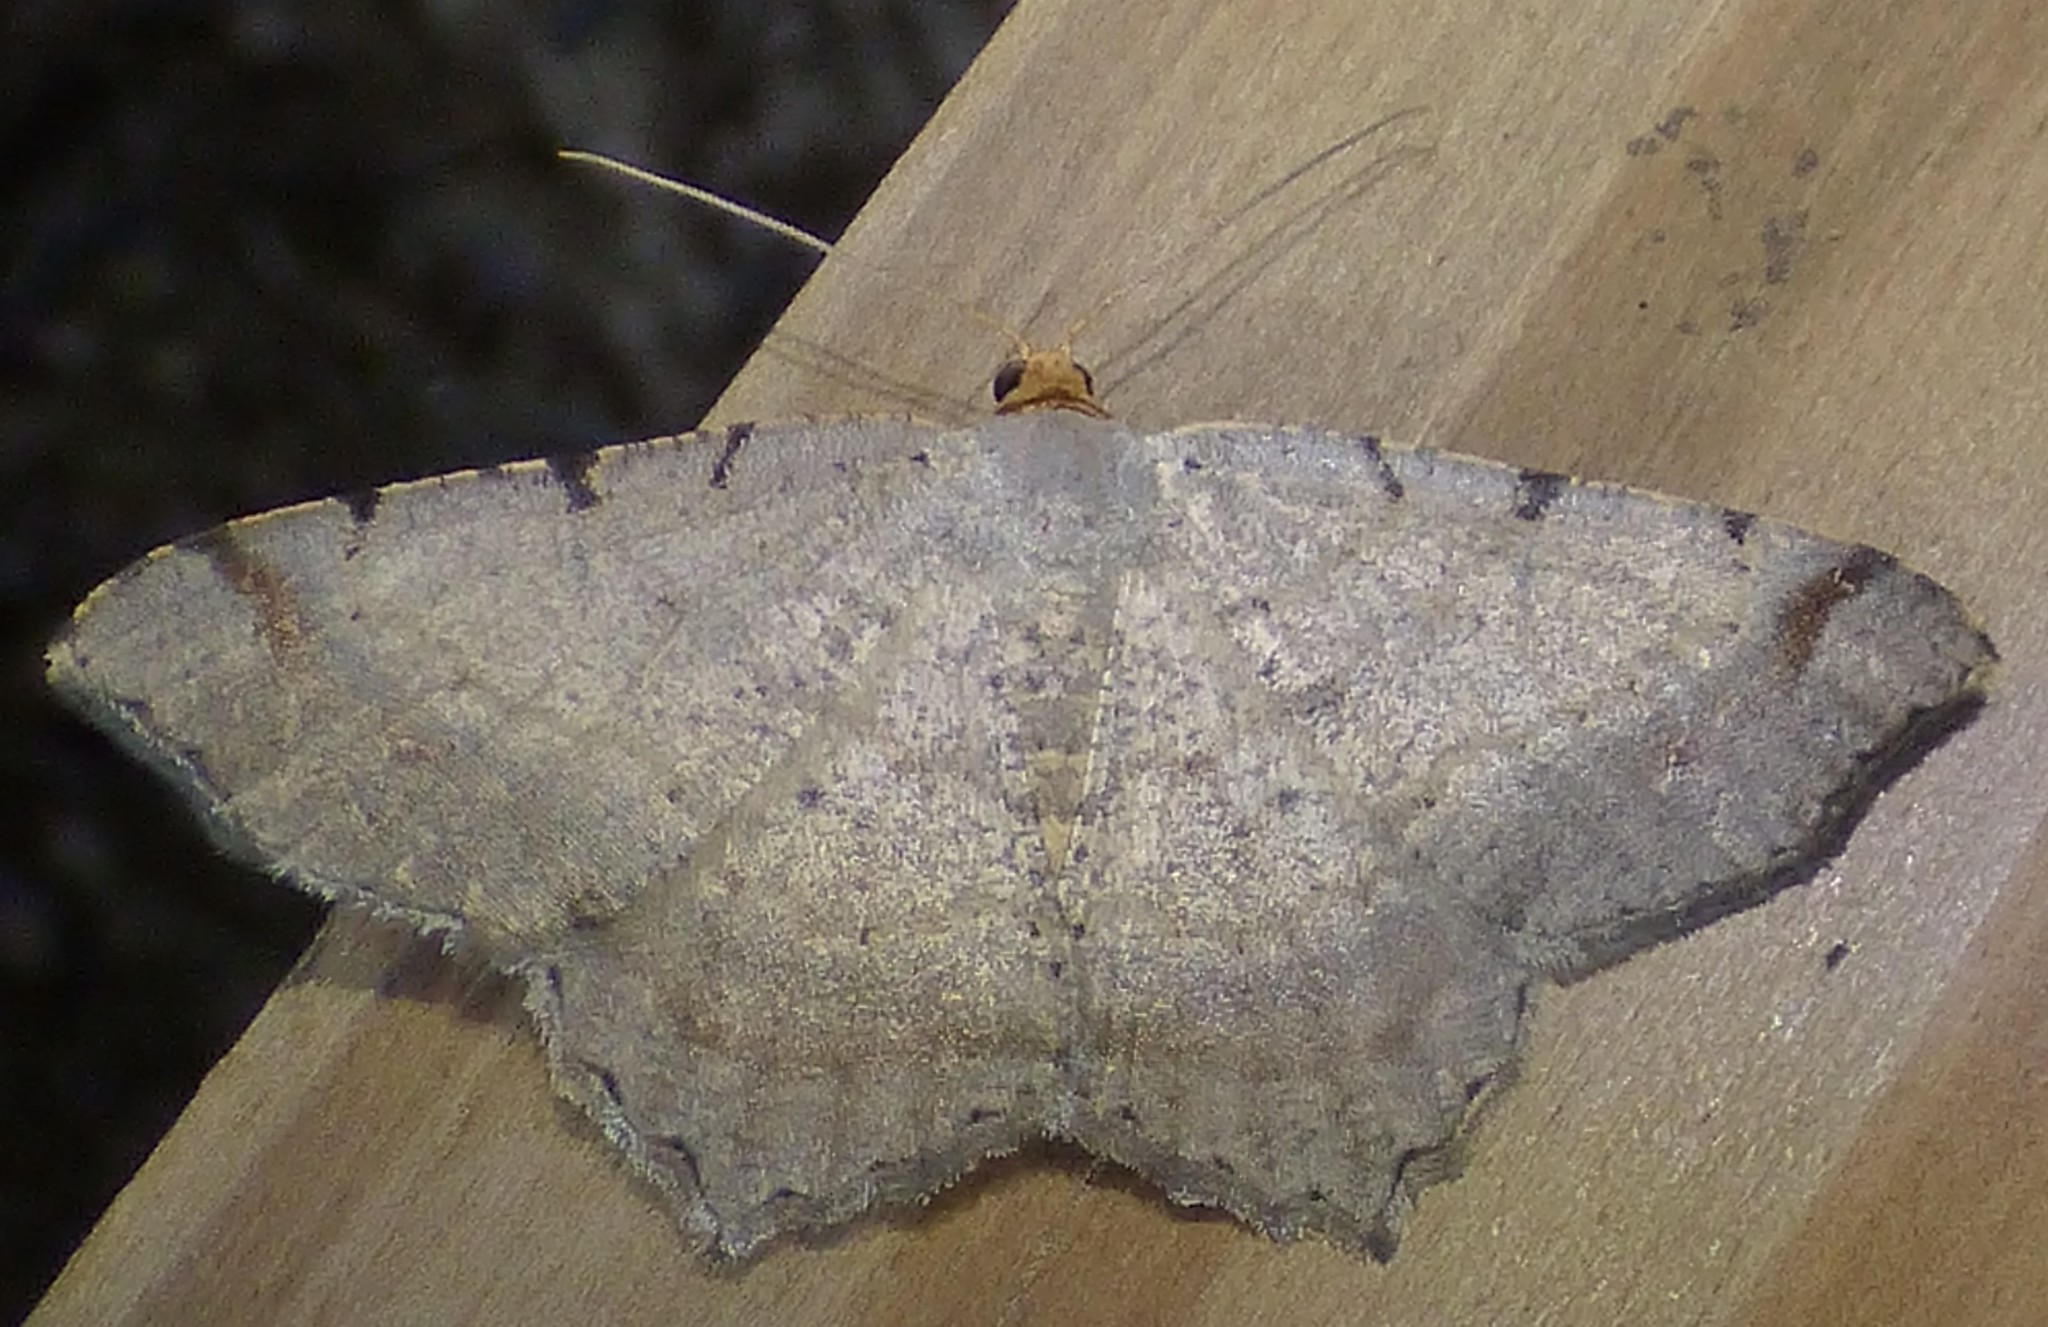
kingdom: Animalia
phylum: Arthropoda
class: Insecta
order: Lepidoptera
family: Geometridae
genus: Macaria
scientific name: Macaria bicolorata
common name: Dingy angle
